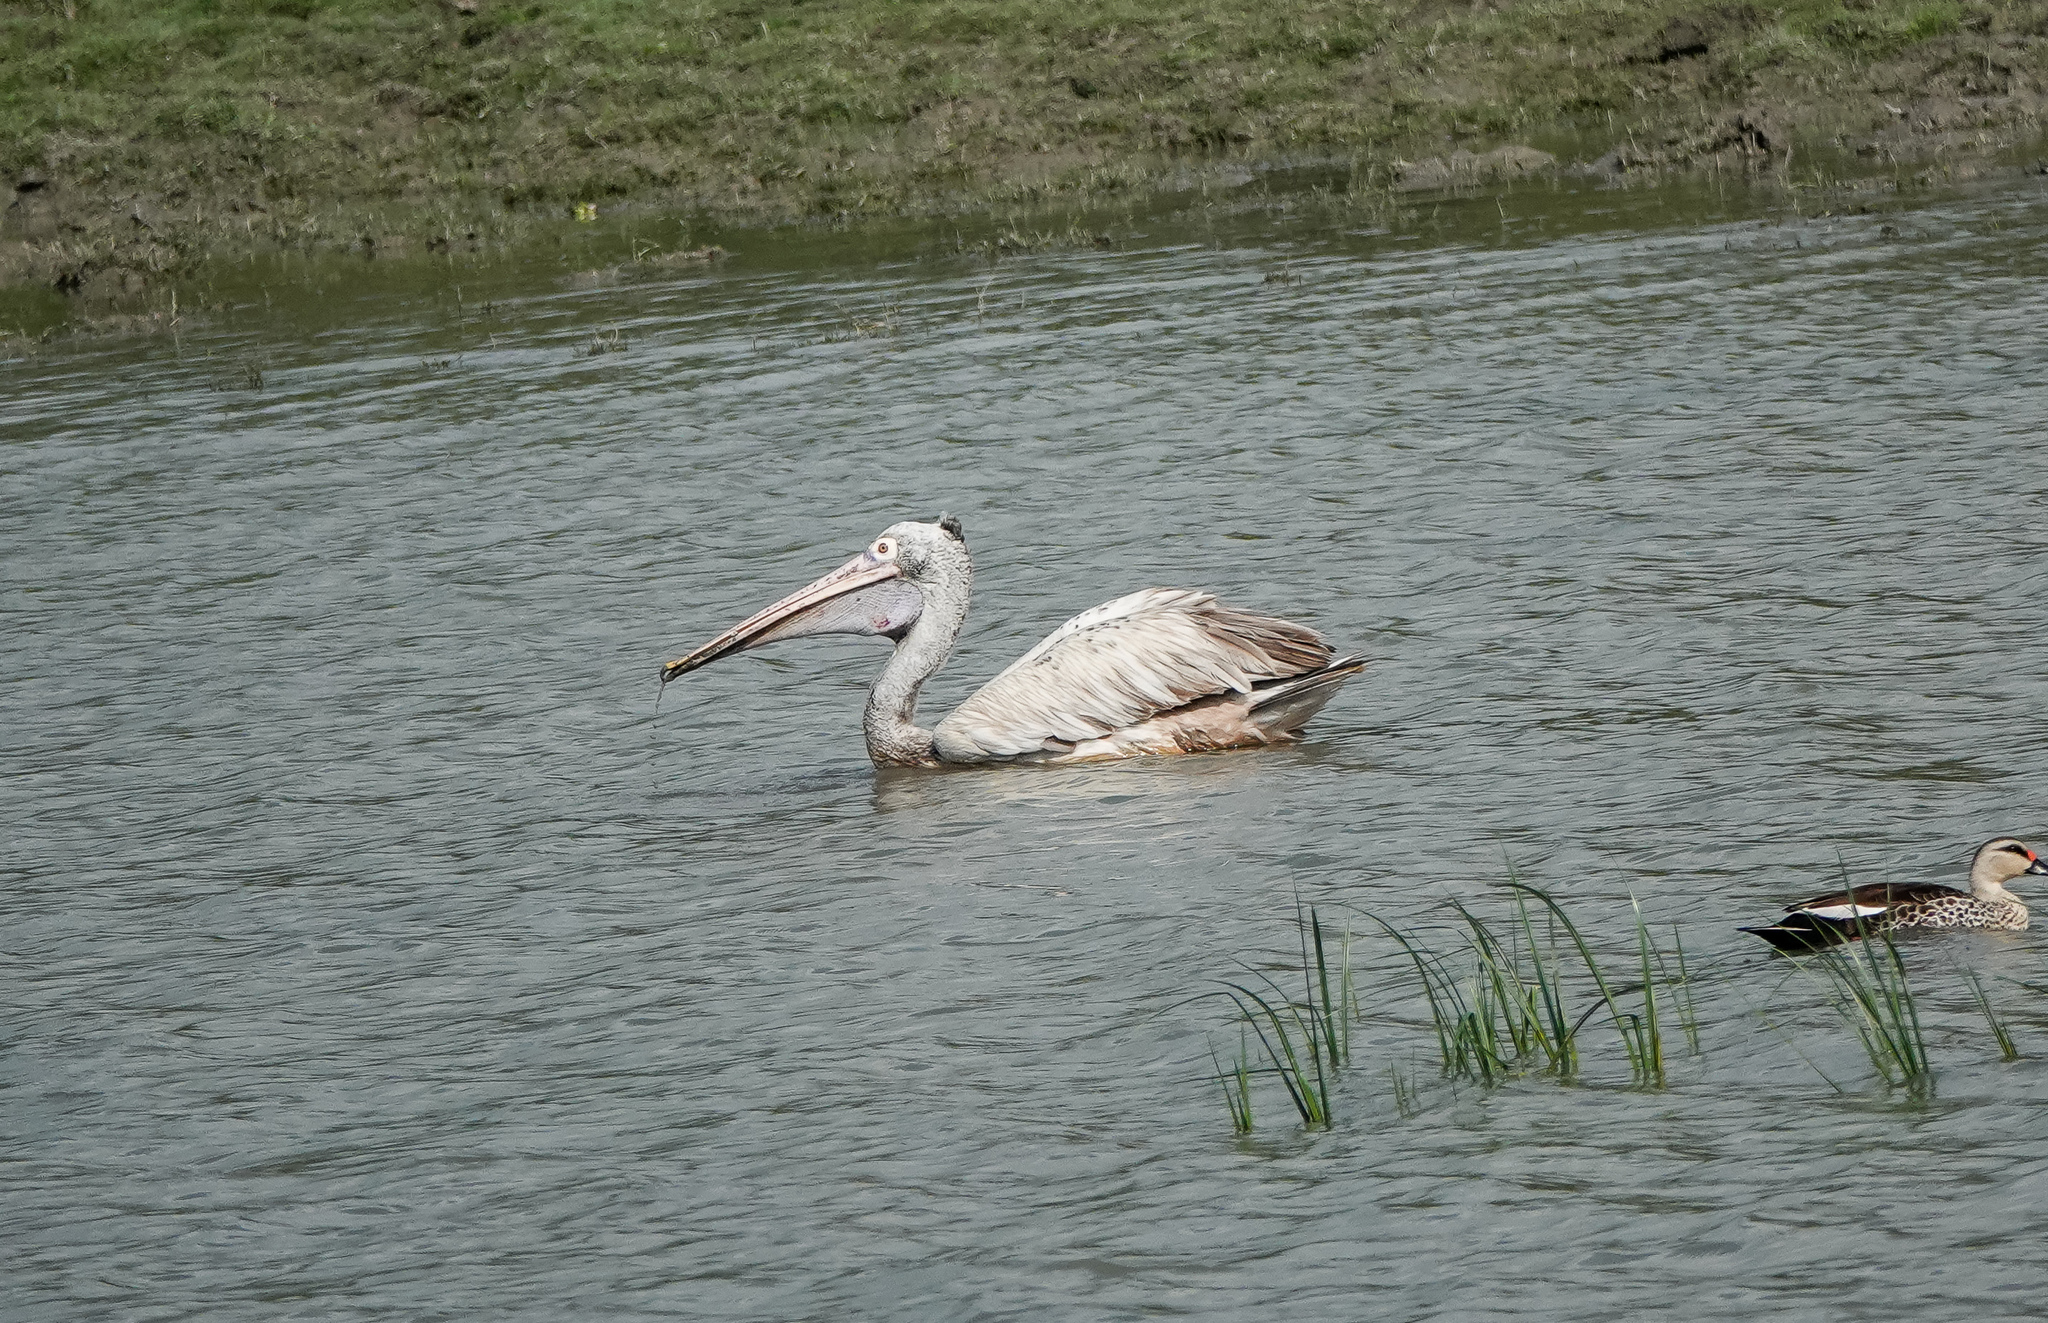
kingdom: Animalia
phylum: Chordata
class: Aves
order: Pelecaniformes
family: Pelecanidae
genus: Pelecanus
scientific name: Pelecanus philippensis
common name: Spot-billed pelican
